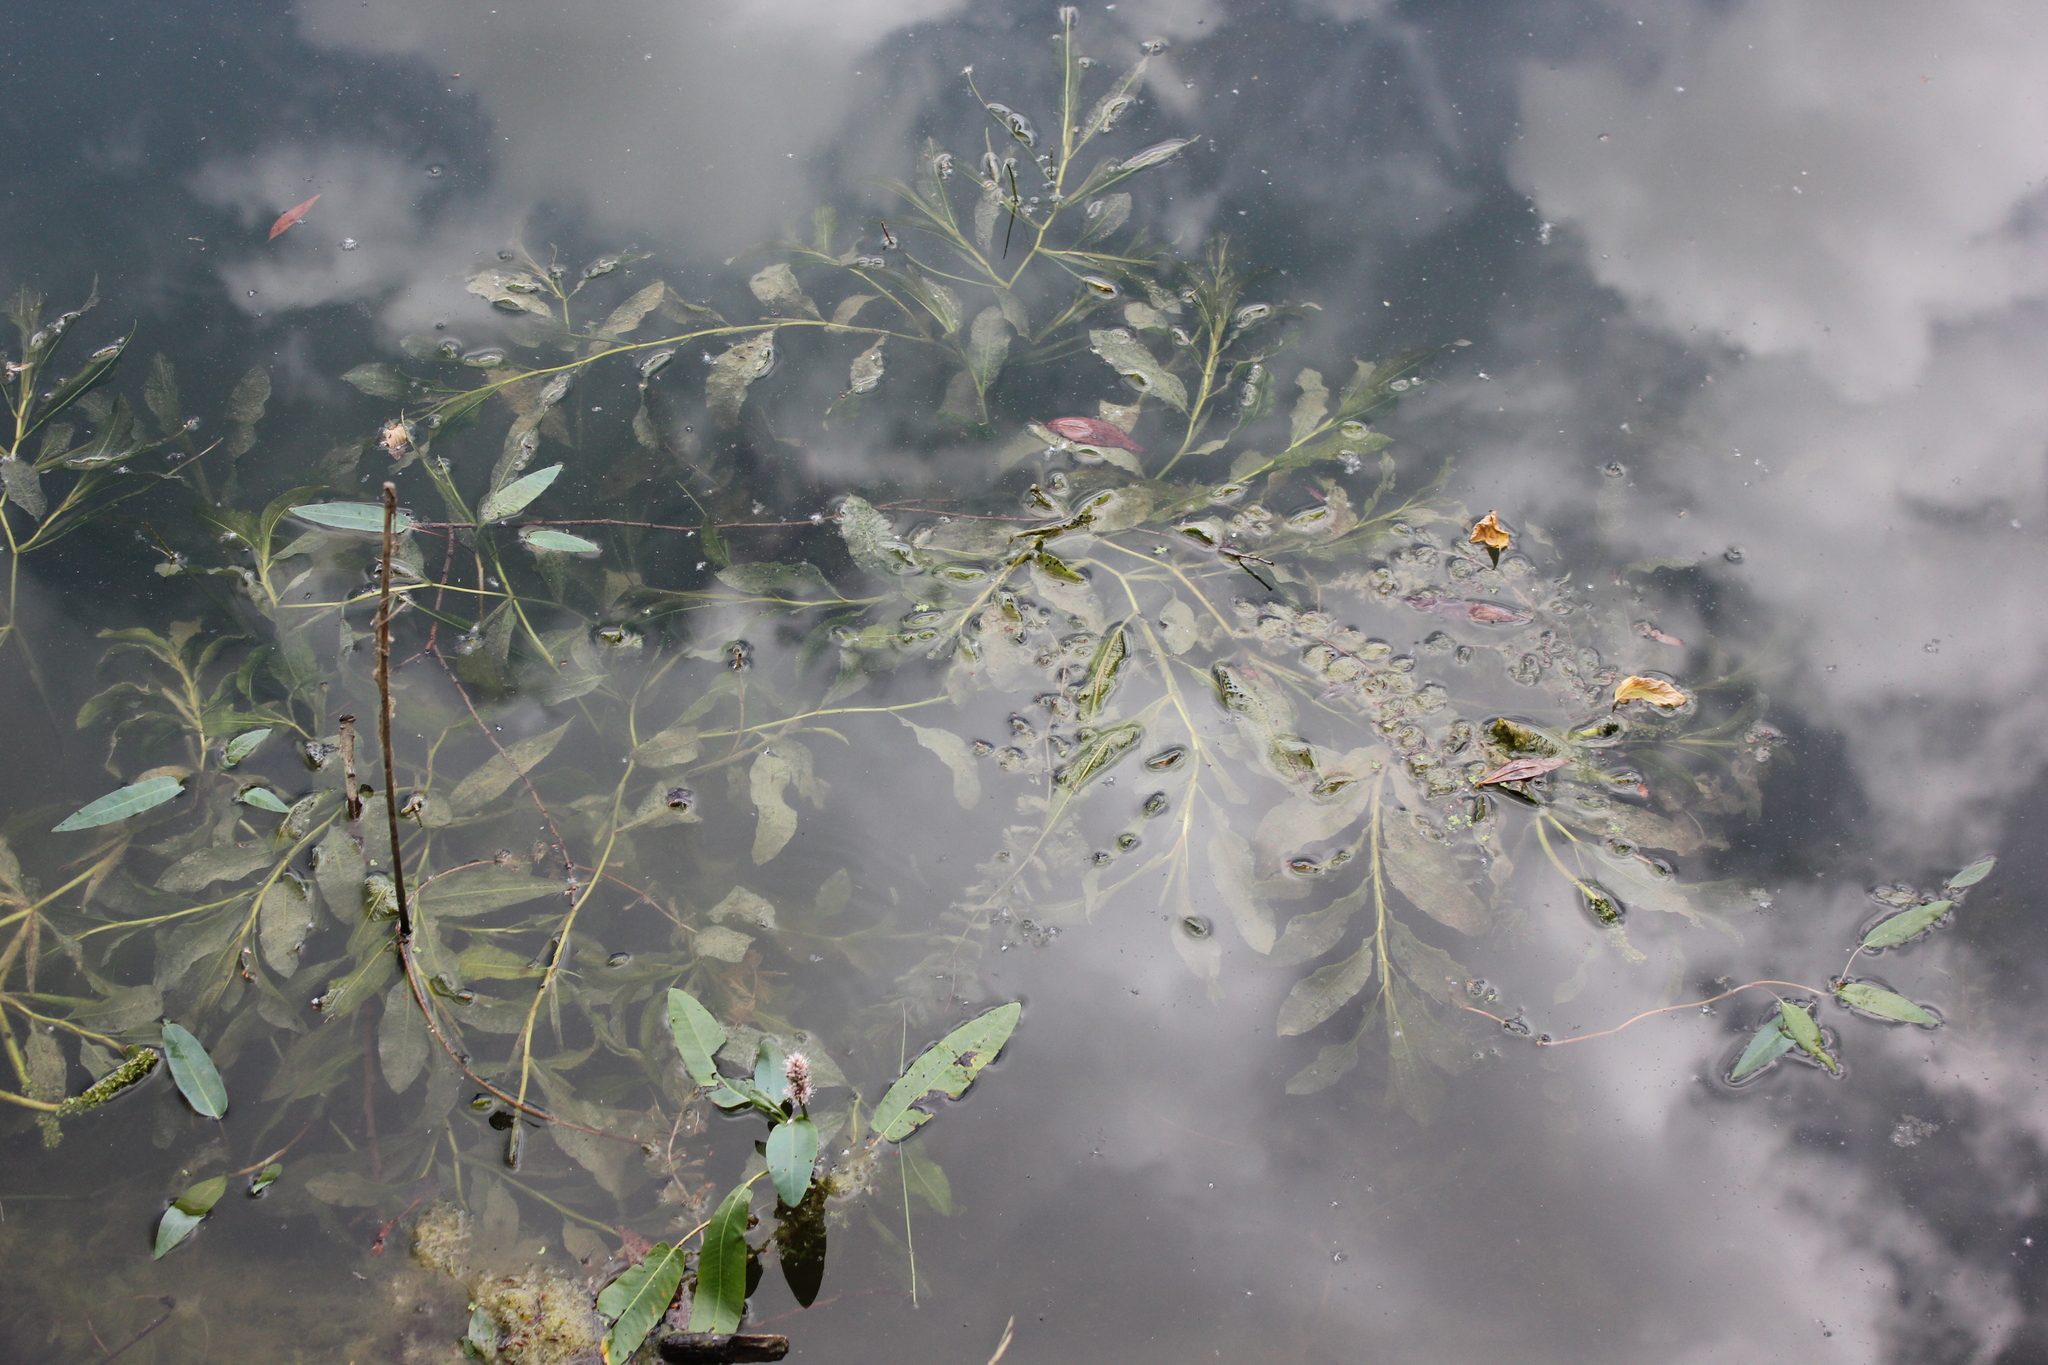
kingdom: Plantae
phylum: Tracheophyta
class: Liliopsida
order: Alismatales
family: Potamogetonaceae
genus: Potamogeton
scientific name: Potamogeton lucens
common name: Shining pondweed
